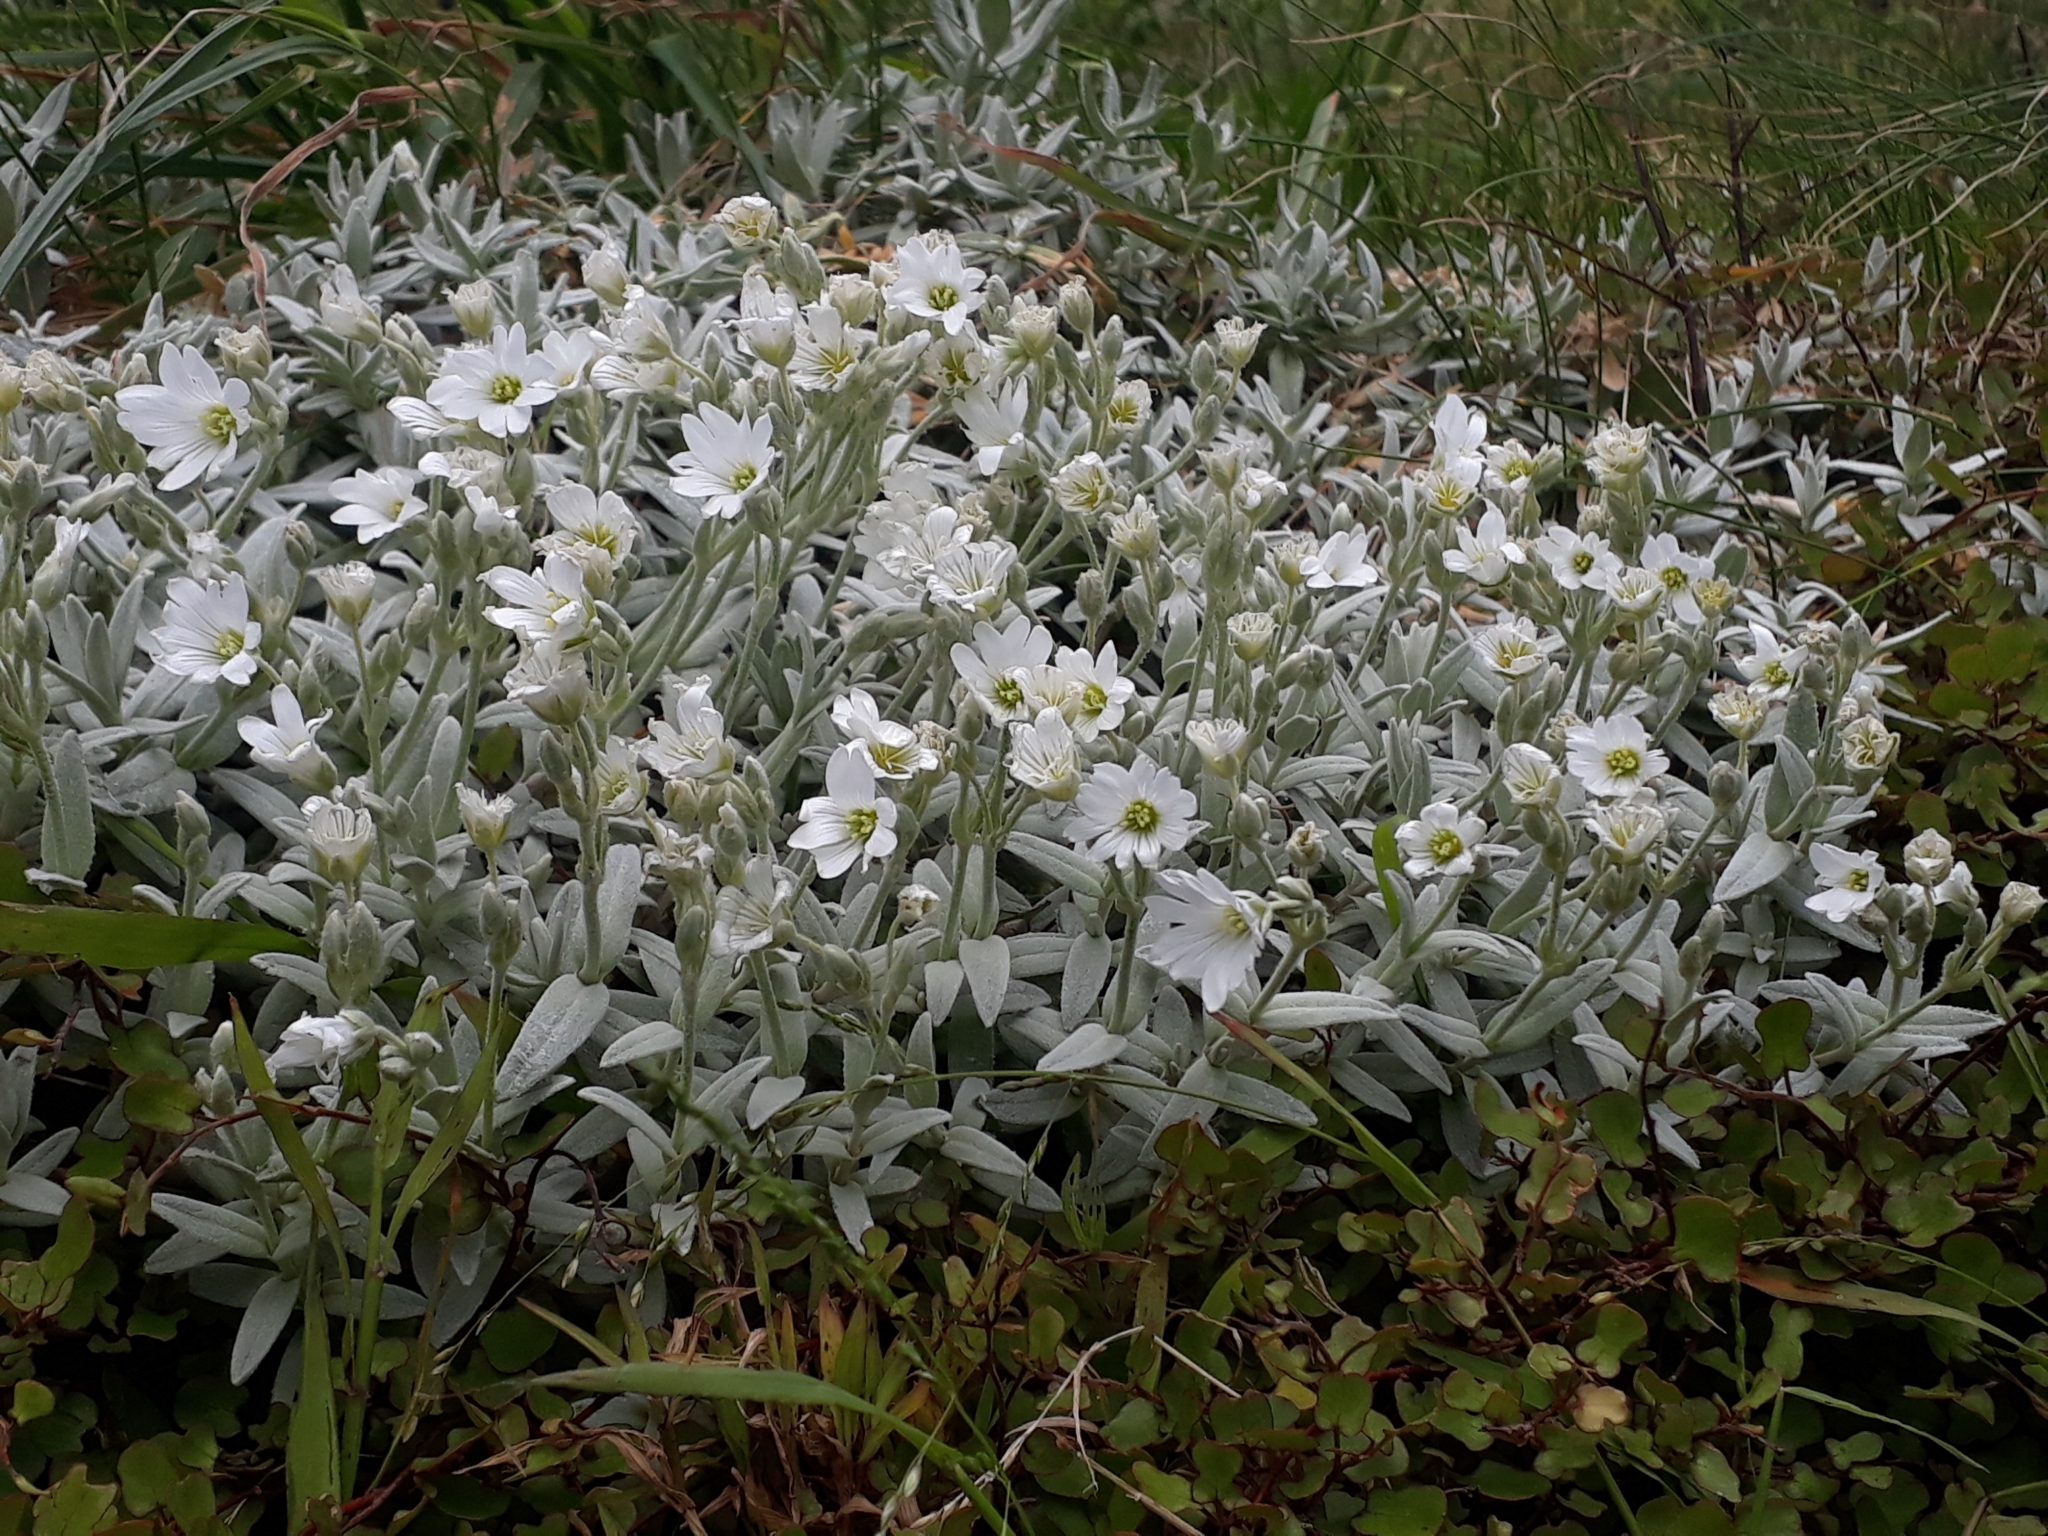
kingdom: Plantae
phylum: Tracheophyta
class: Magnoliopsida
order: Caryophyllales
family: Caryophyllaceae
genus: Cerastium
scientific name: Cerastium tomentosum
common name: Snow-in-summer
